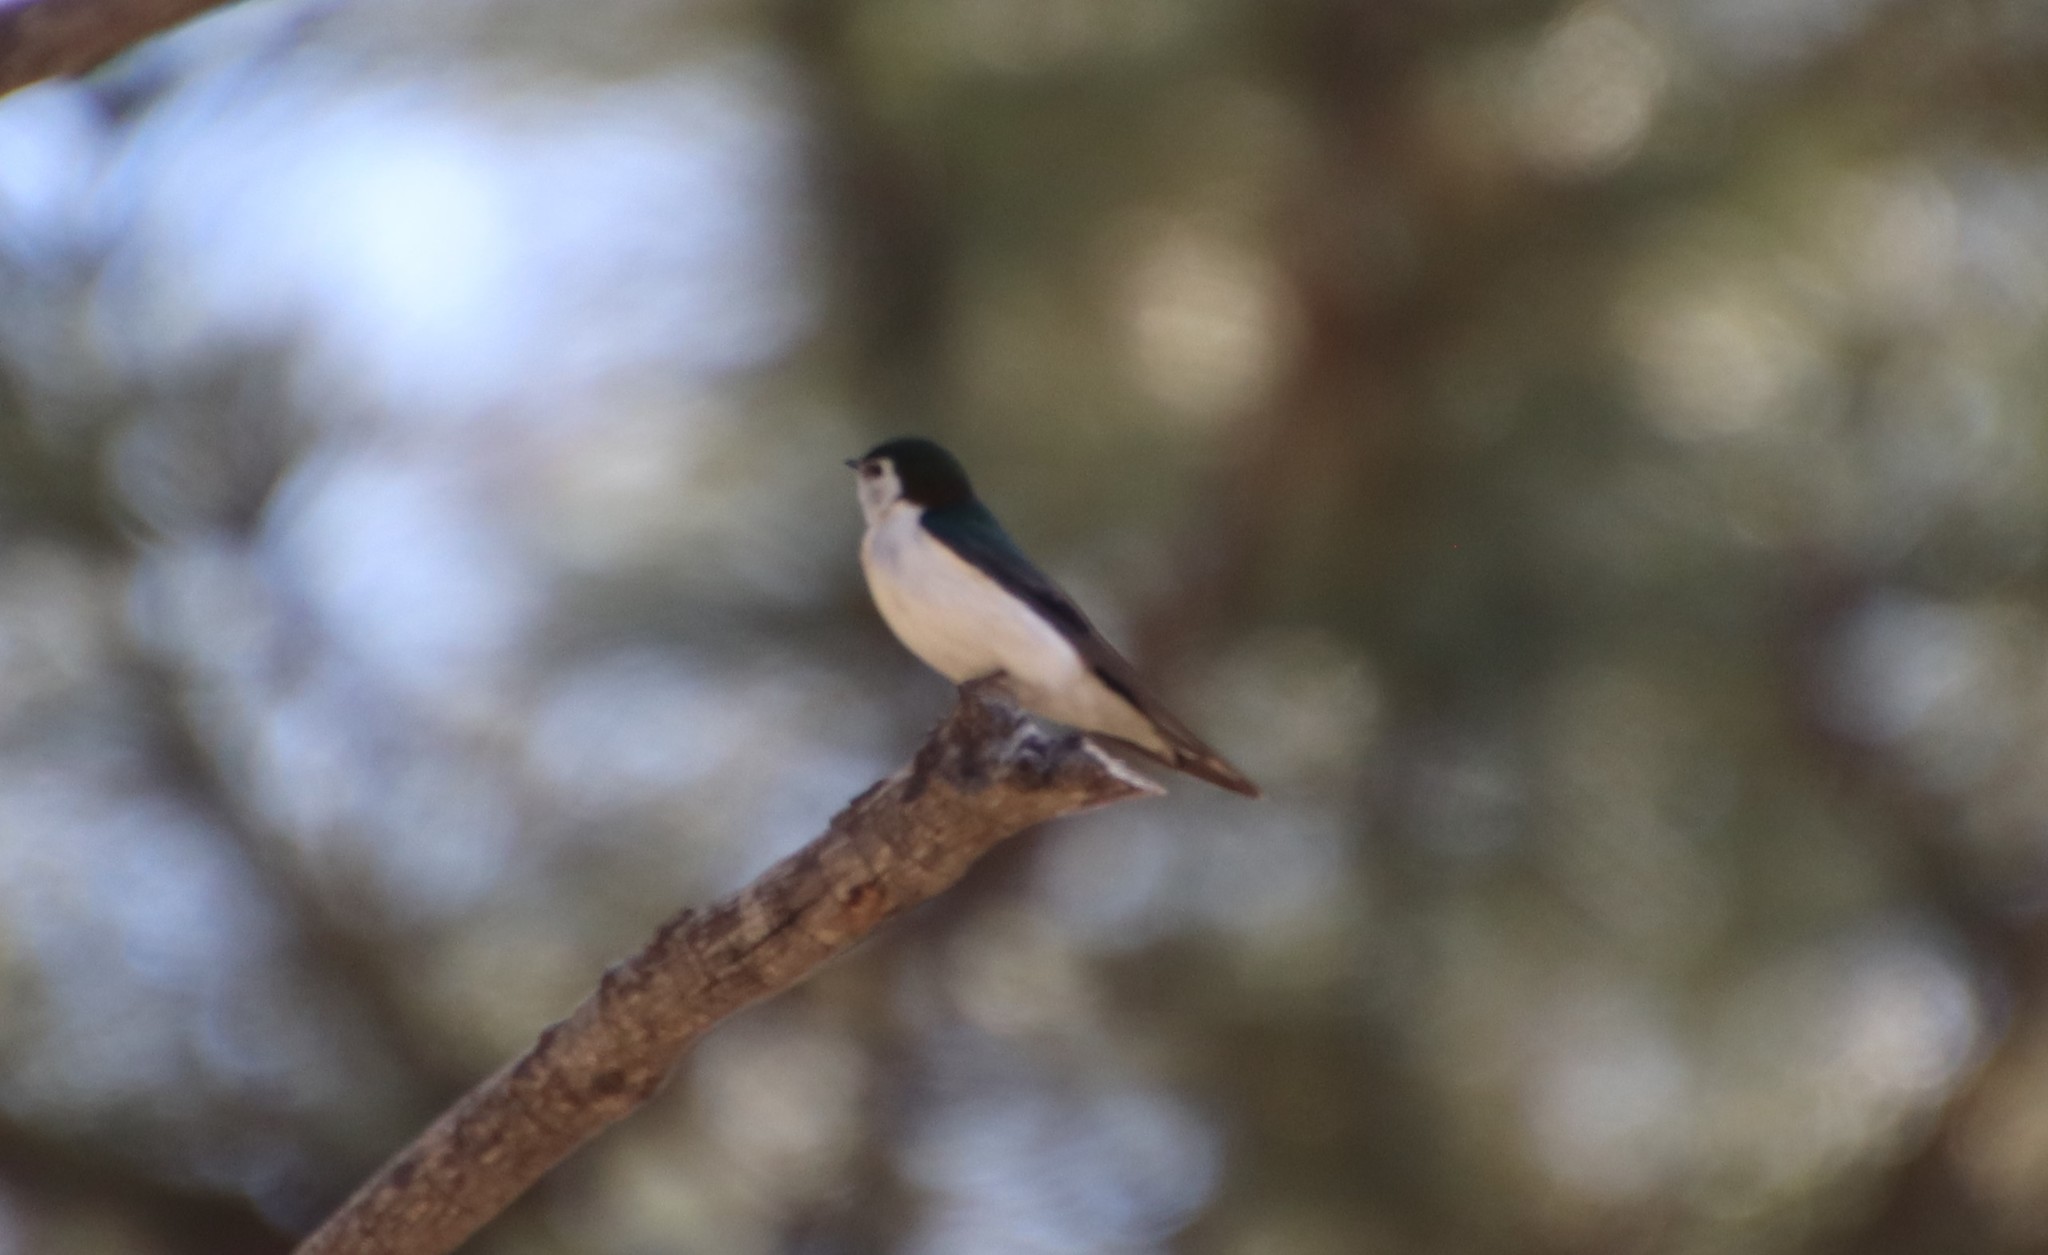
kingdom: Animalia
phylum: Chordata
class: Aves
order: Passeriformes
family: Hirundinidae
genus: Tachycineta
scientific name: Tachycineta thalassina
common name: Violet-green swallow
